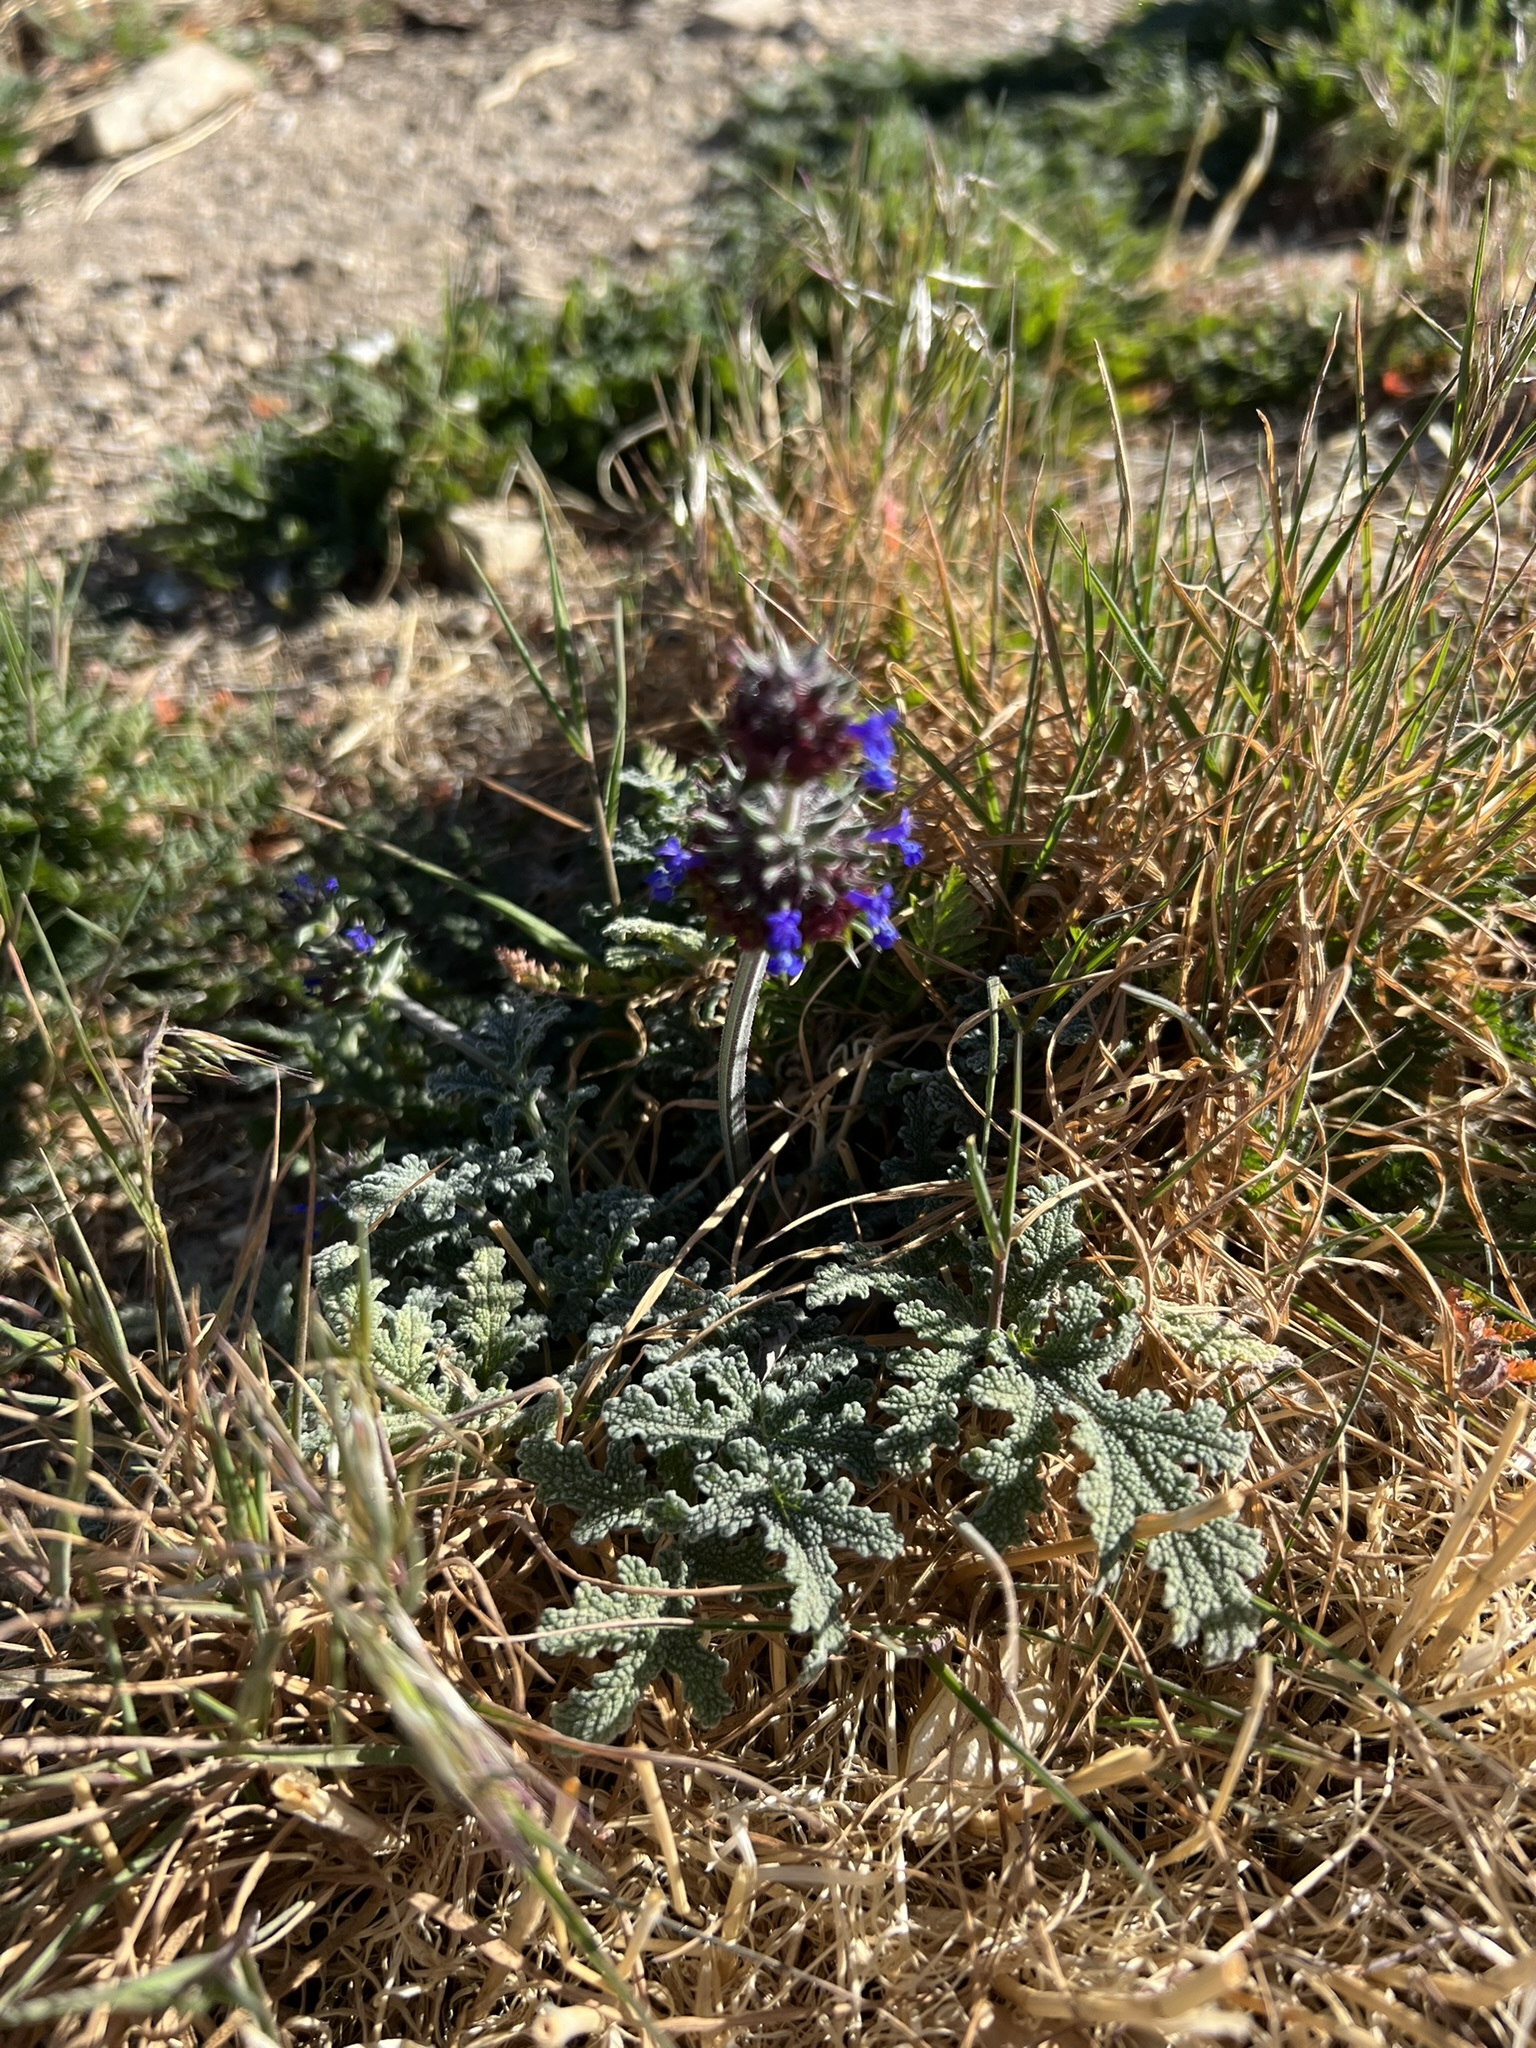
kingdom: Plantae
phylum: Tracheophyta
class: Magnoliopsida
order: Lamiales
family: Lamiaceae
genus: Salvia
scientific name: Salvia columbariae
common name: Chia
